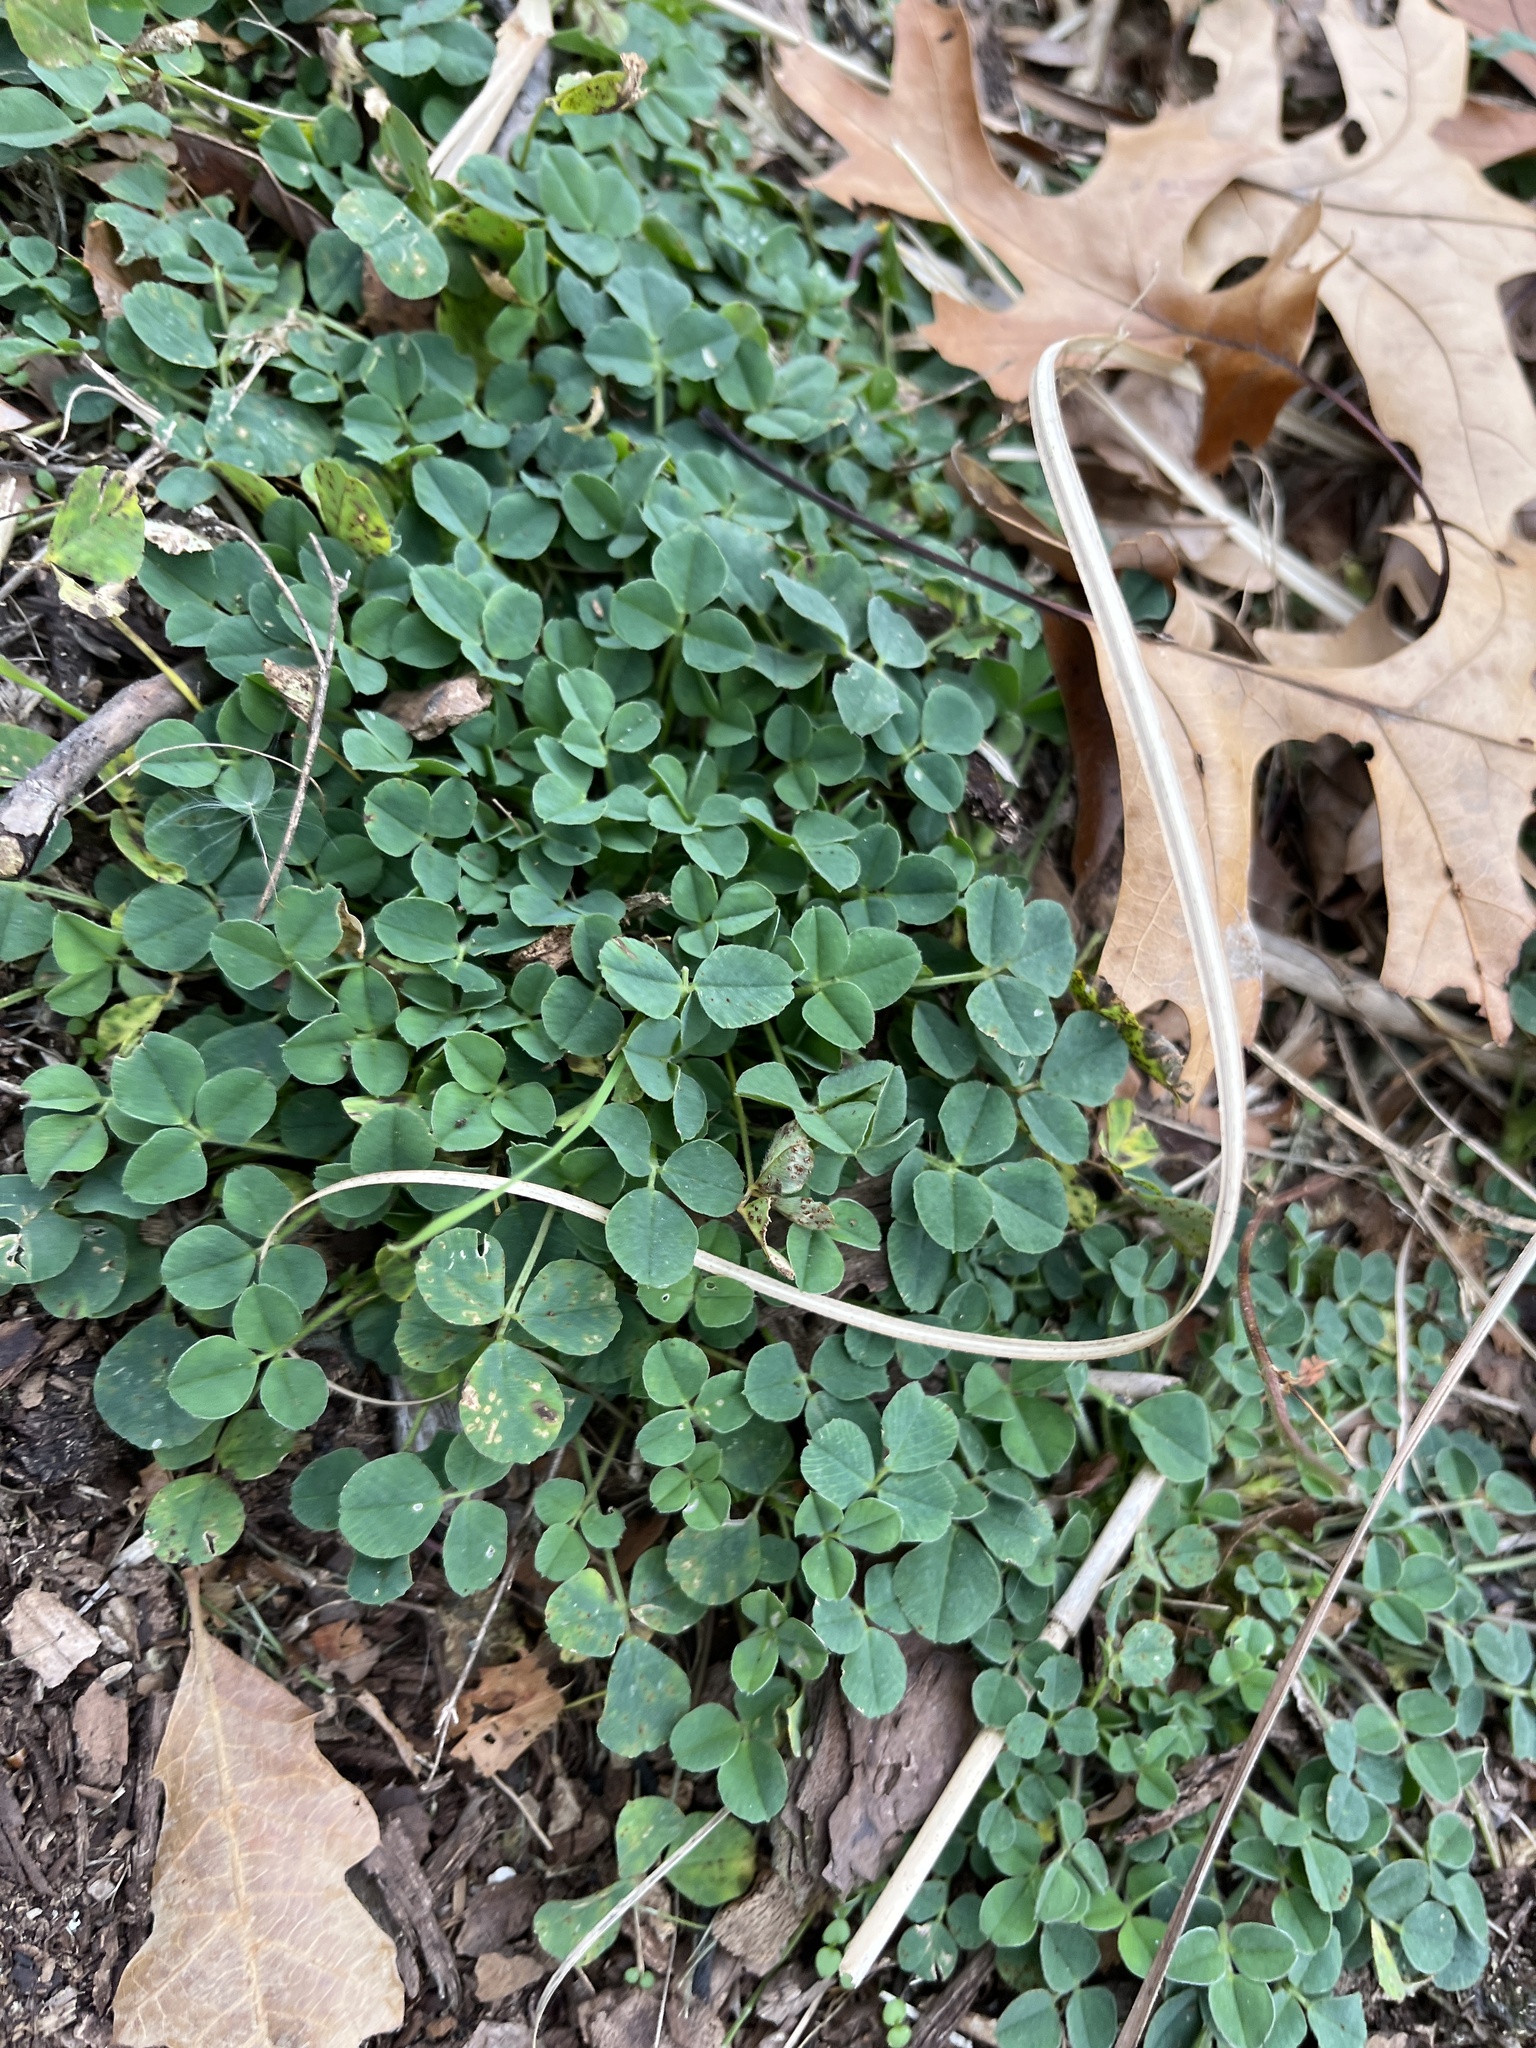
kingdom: Plantae
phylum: Tracheophyta
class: Magnoliopsida
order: Fabales
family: Fabaceae
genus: Medicago
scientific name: Medicago lupulina
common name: Black medick
